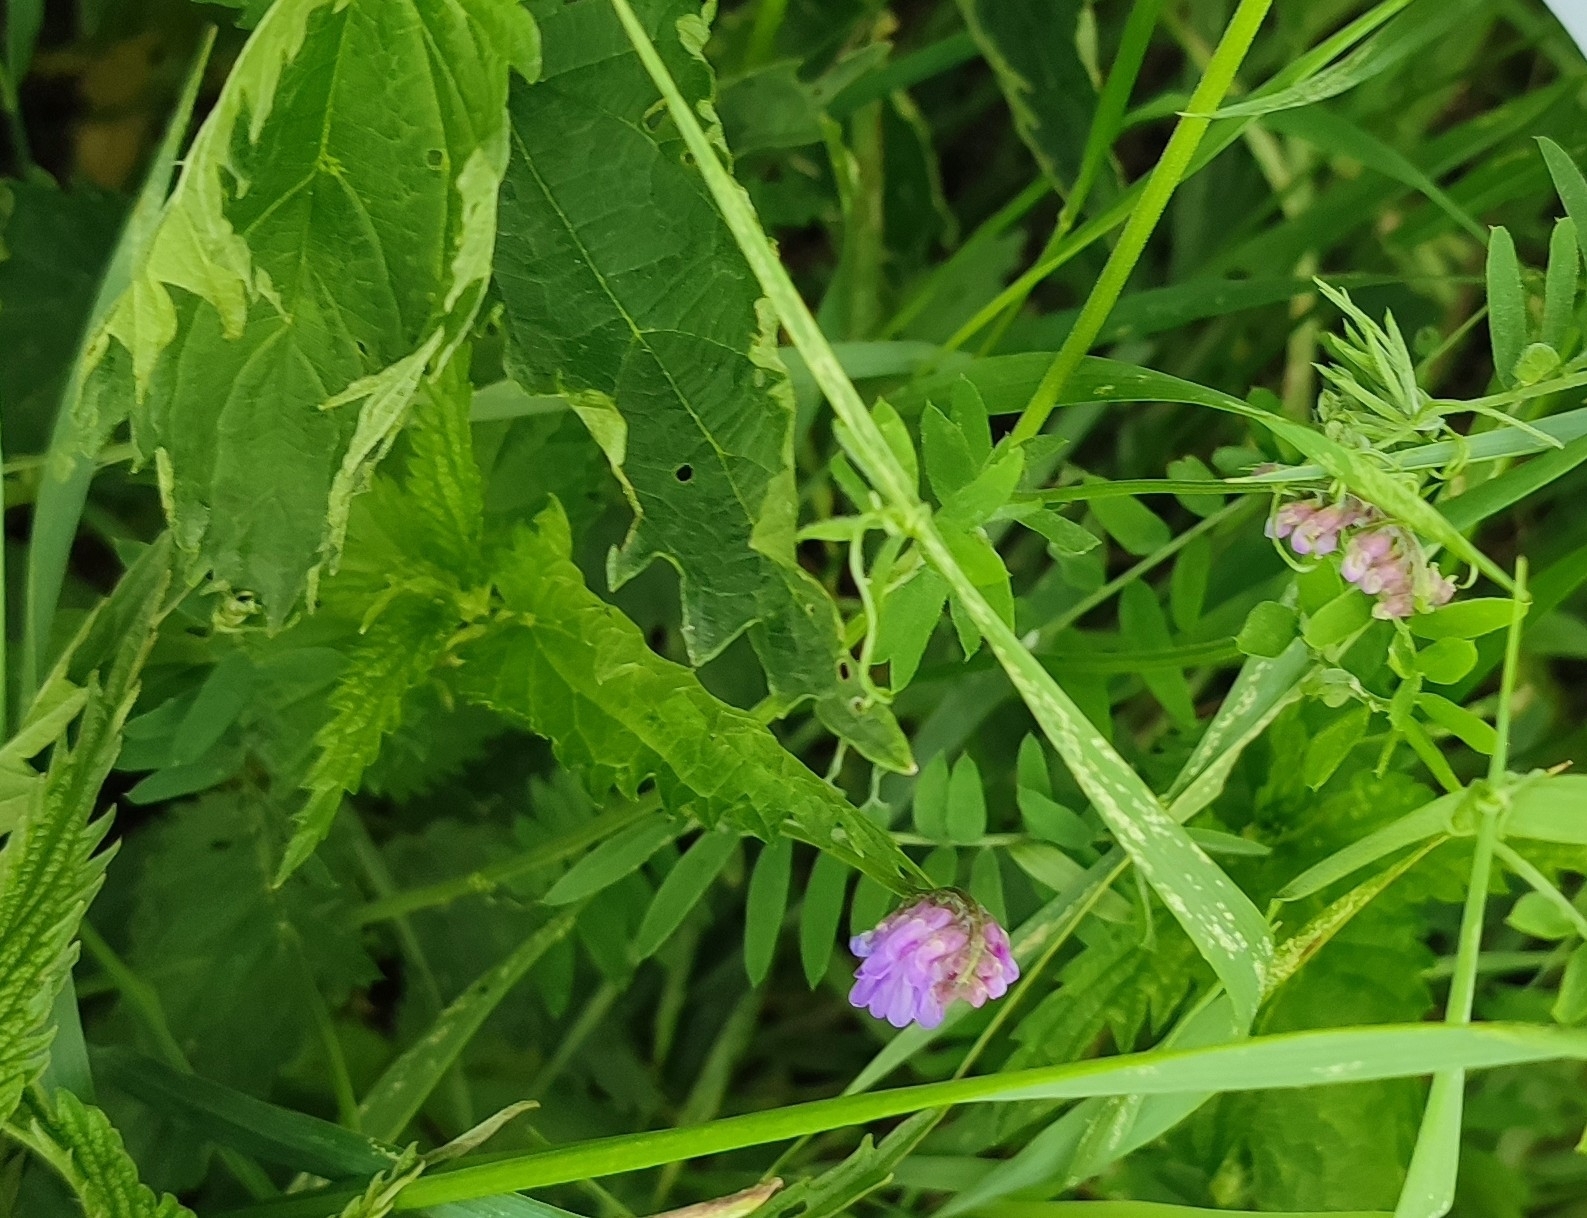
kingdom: Plantae
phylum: Tracheophyta
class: Magnoliopsida
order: Fabales
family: Fabaceae
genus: Vicia
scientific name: Vicia cracca
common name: Bird vetch
